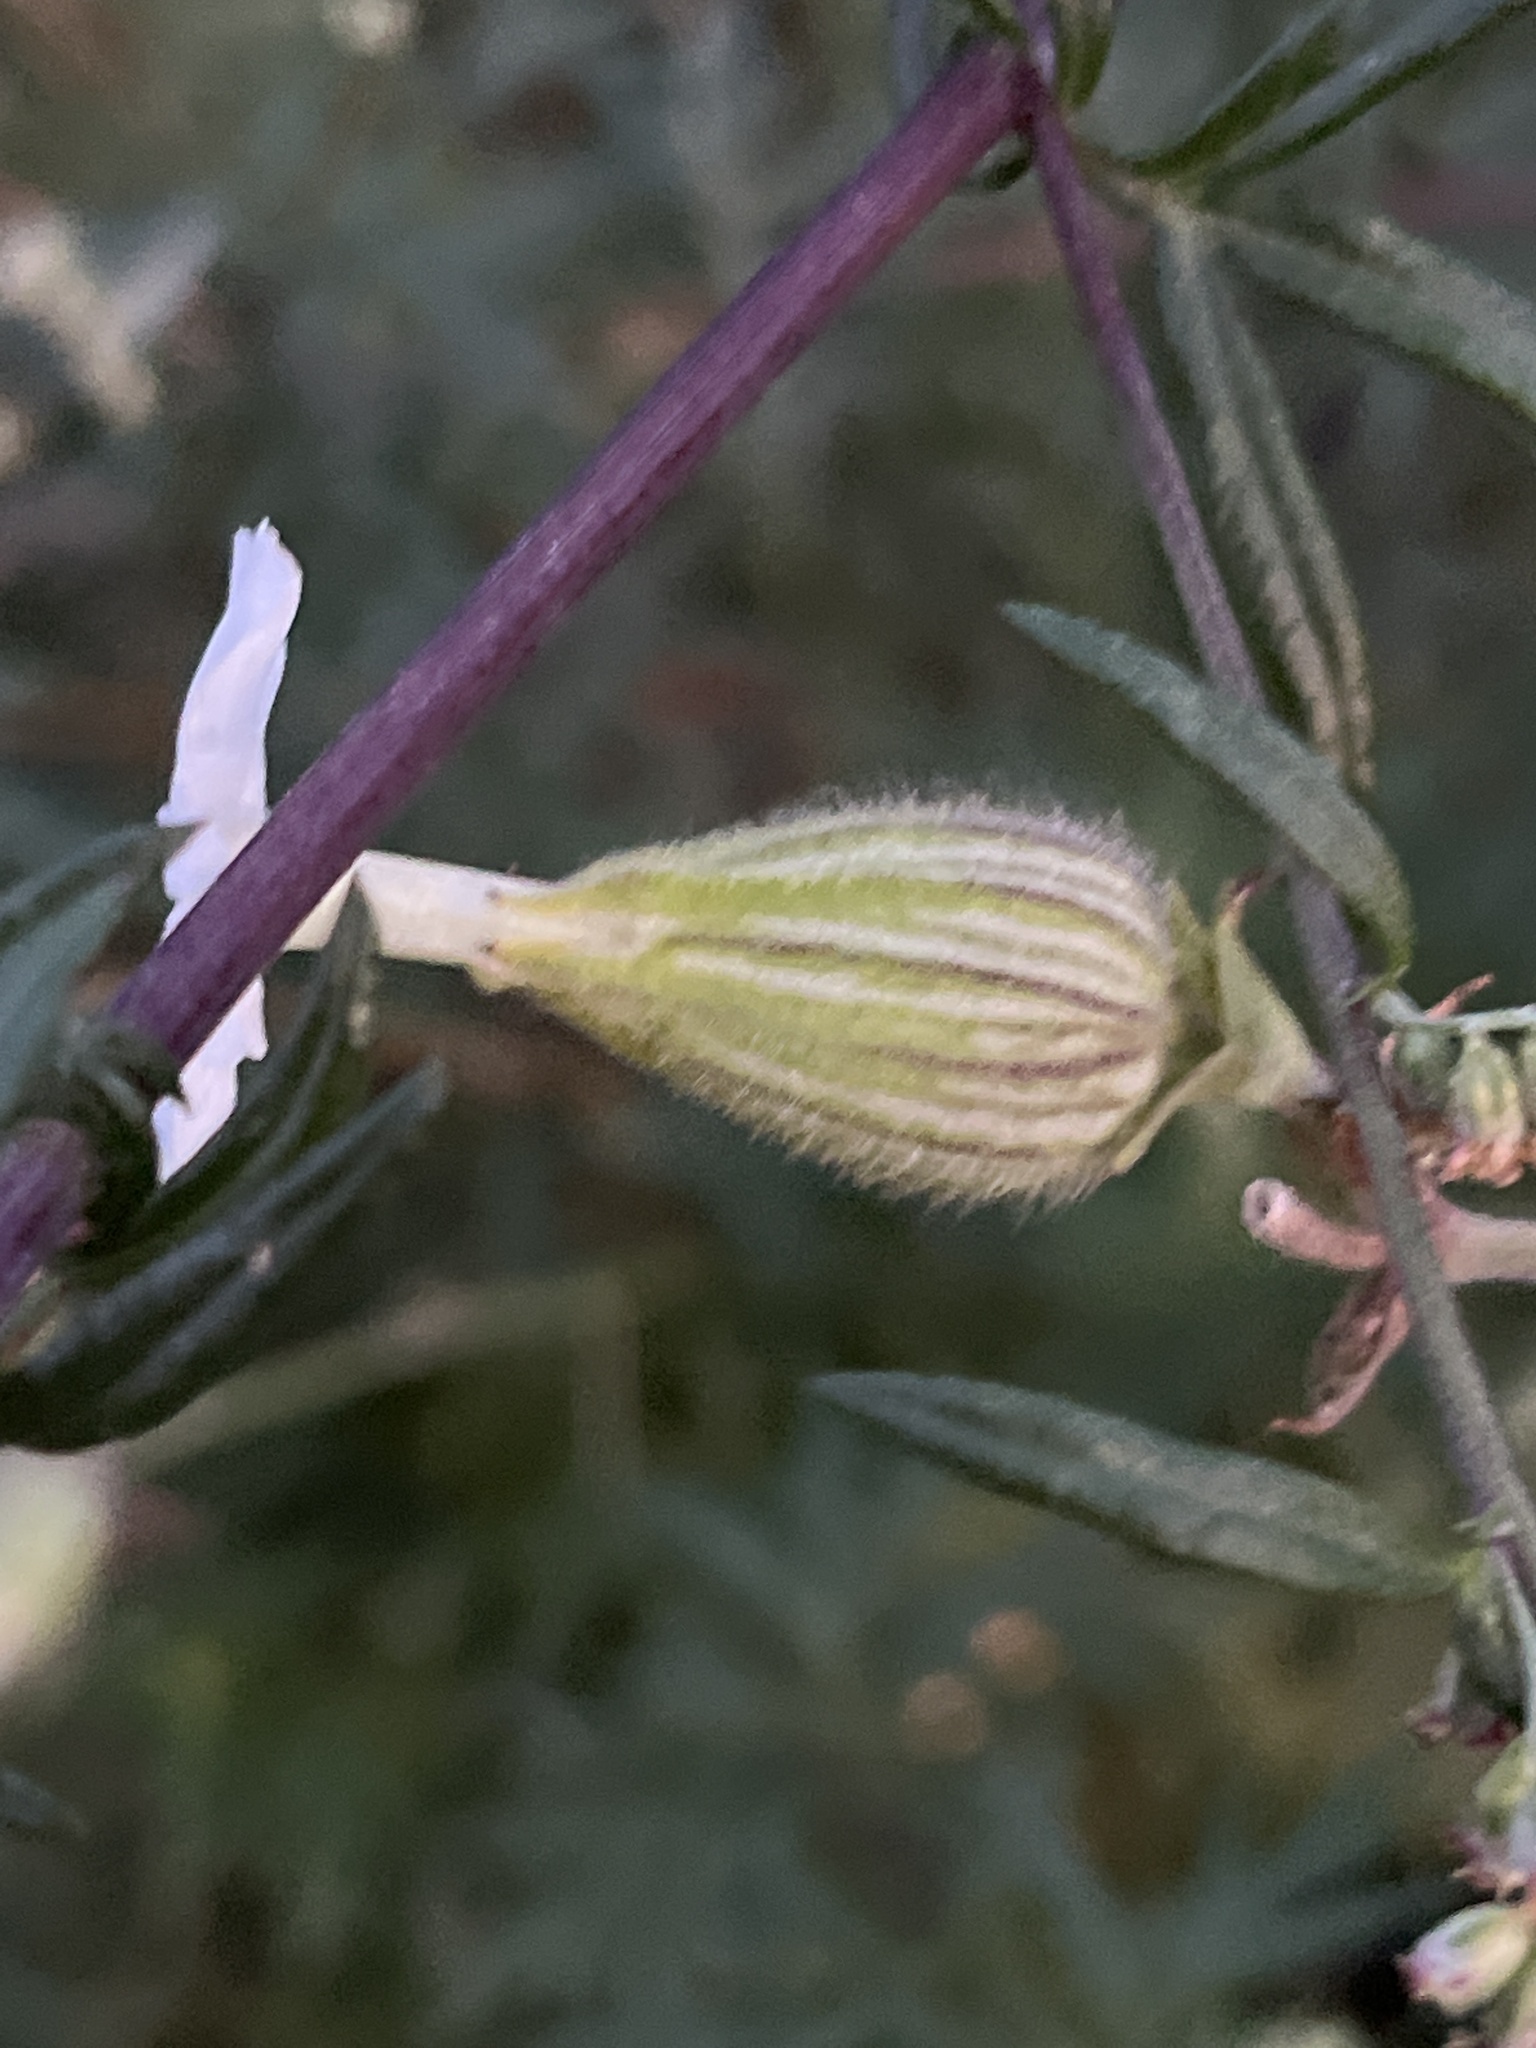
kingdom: Plantae
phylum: Tracheophyta
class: Magnoliopsida
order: Caryophyllales
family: Caryophyllaceae
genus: Silene
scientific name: Silene latifolia
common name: White campion
